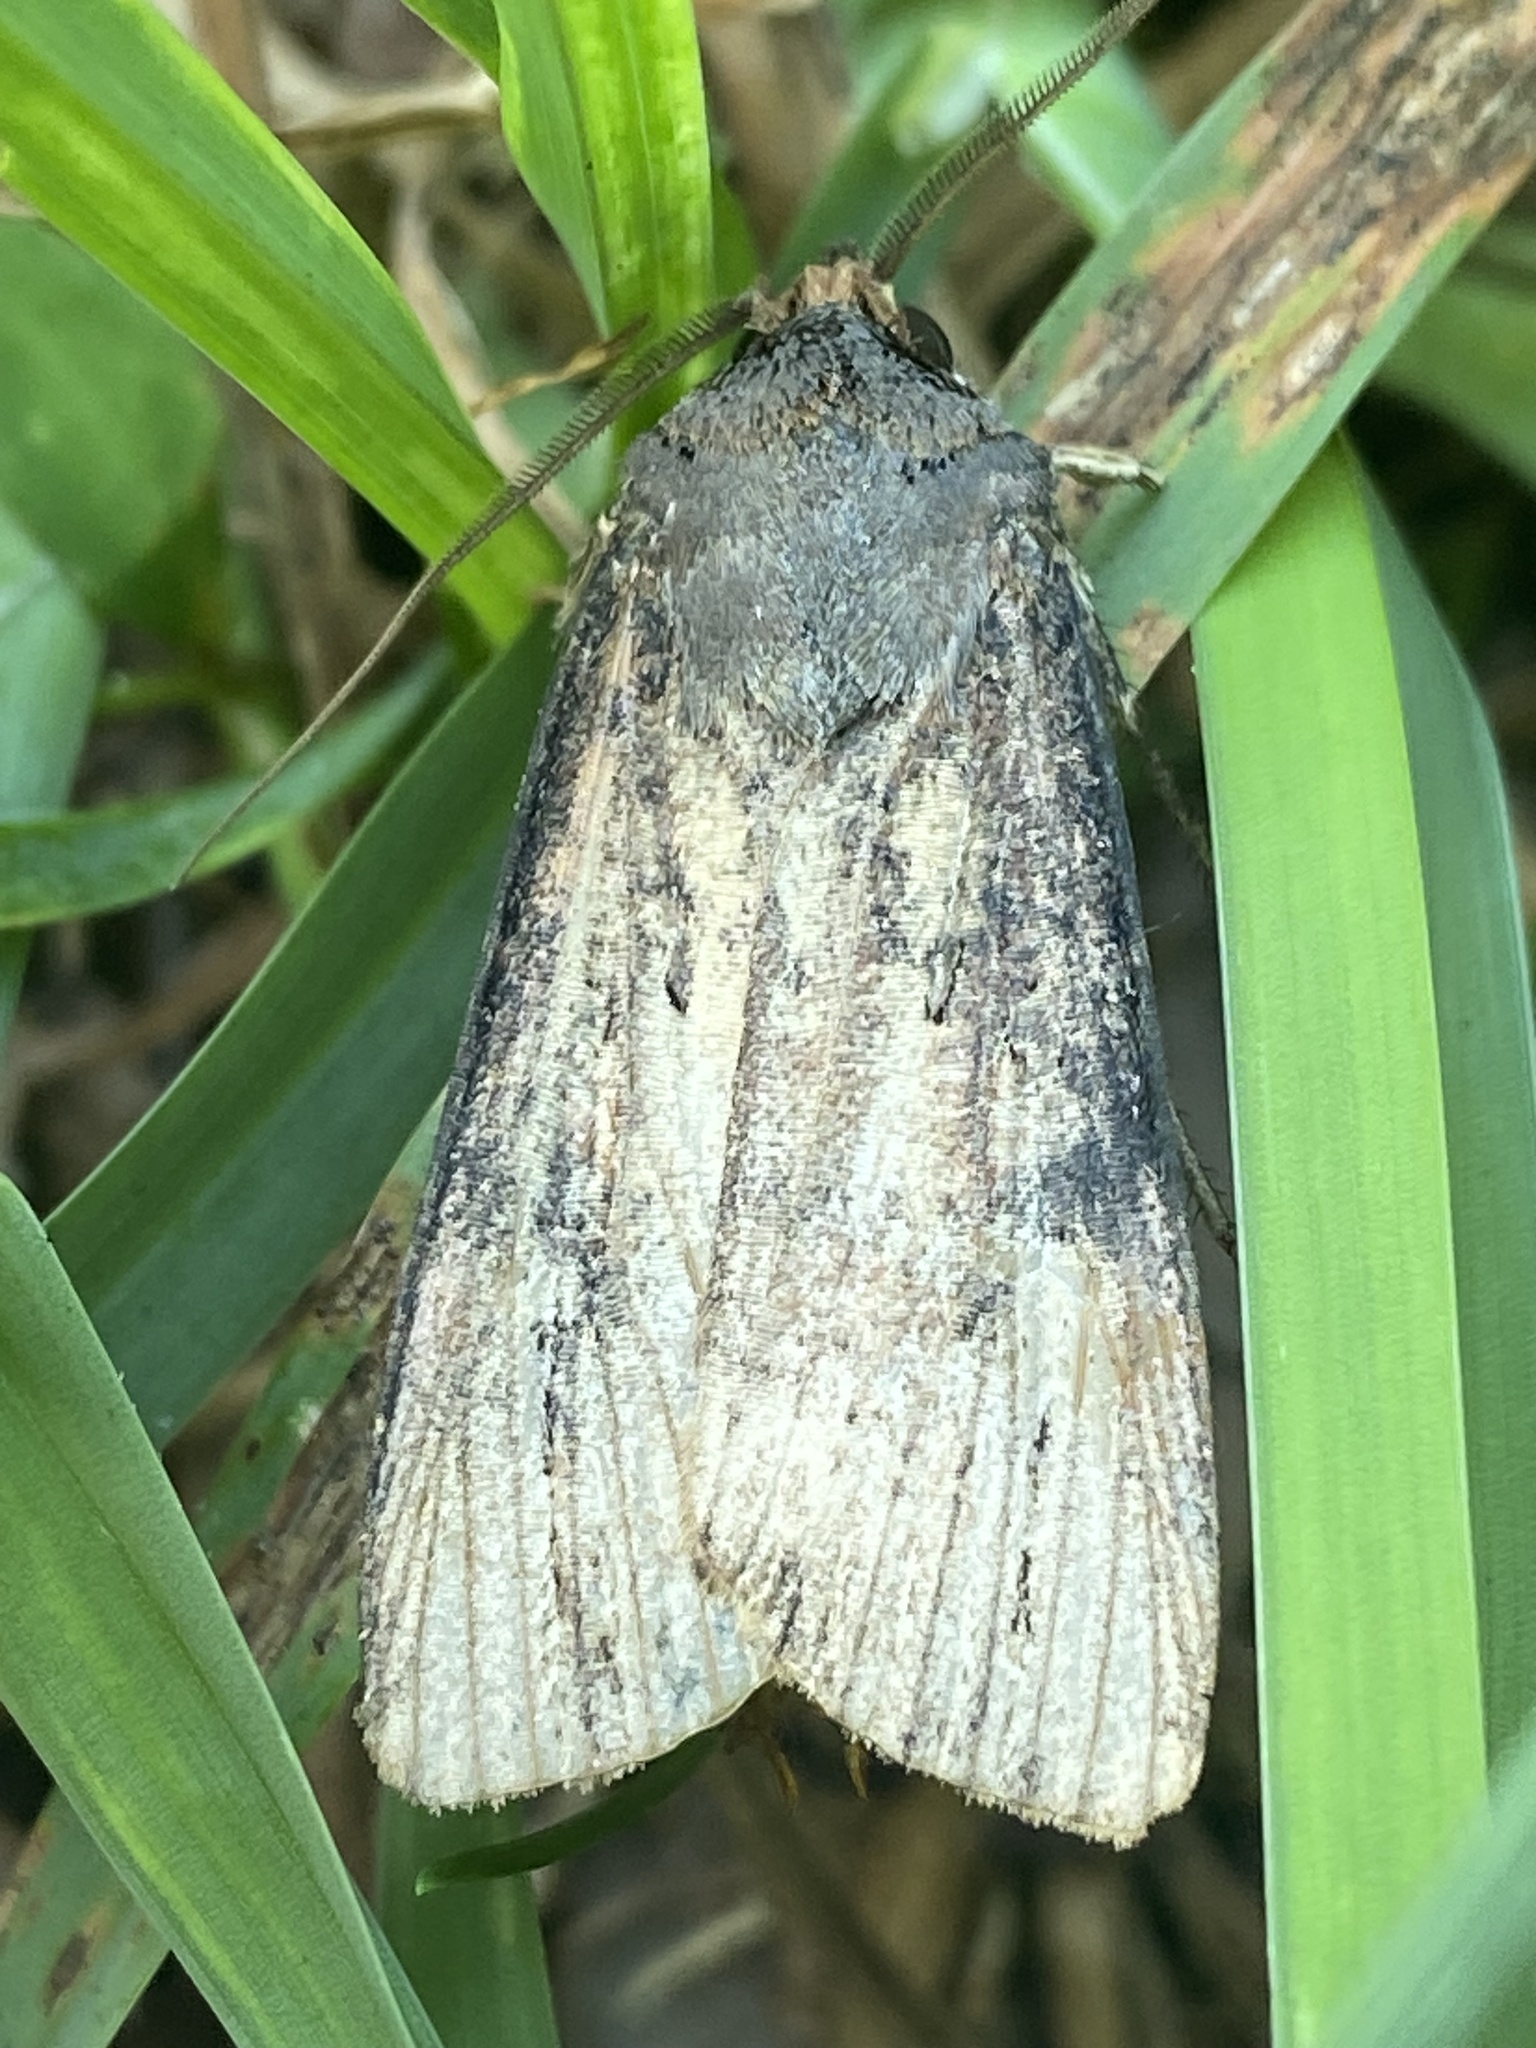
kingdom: Animalia
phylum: Arthropoda
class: Insecta
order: Lepidoptera
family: Noctuidae
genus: Agrotis
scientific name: Agrotis ipsilon
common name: Dark sword-grass
